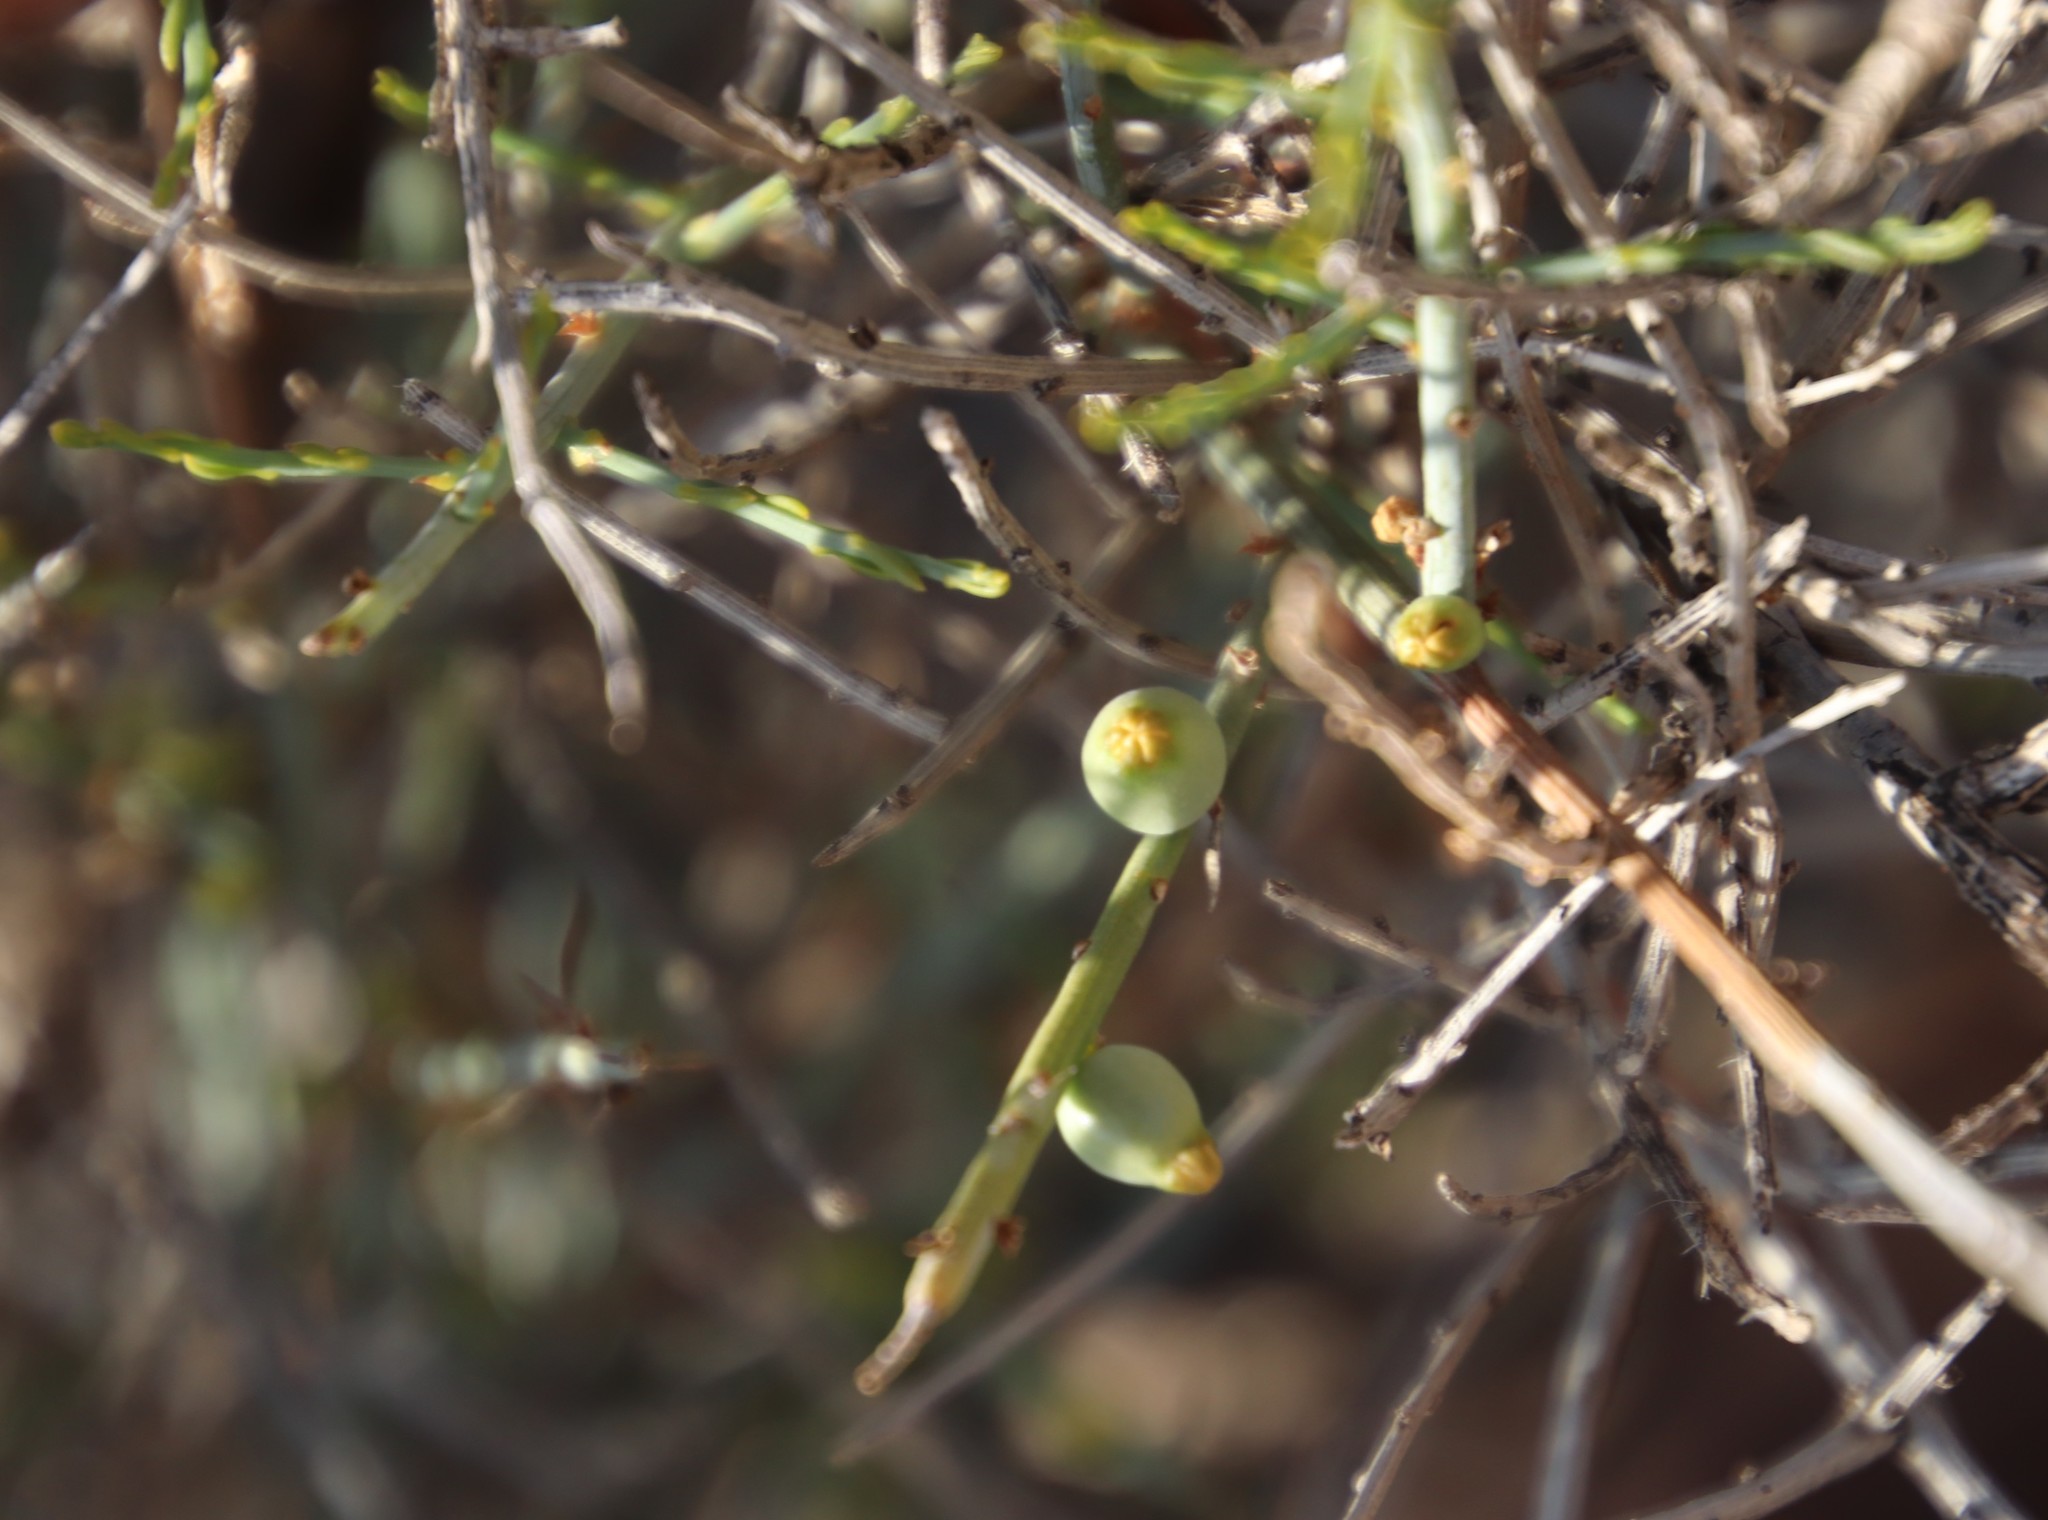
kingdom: Plantae
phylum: Tracheophyta
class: Magnoliopsida
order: Santalales
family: Thesiaceae
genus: Lacomucinaea
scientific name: Lacomucinaea lineata
